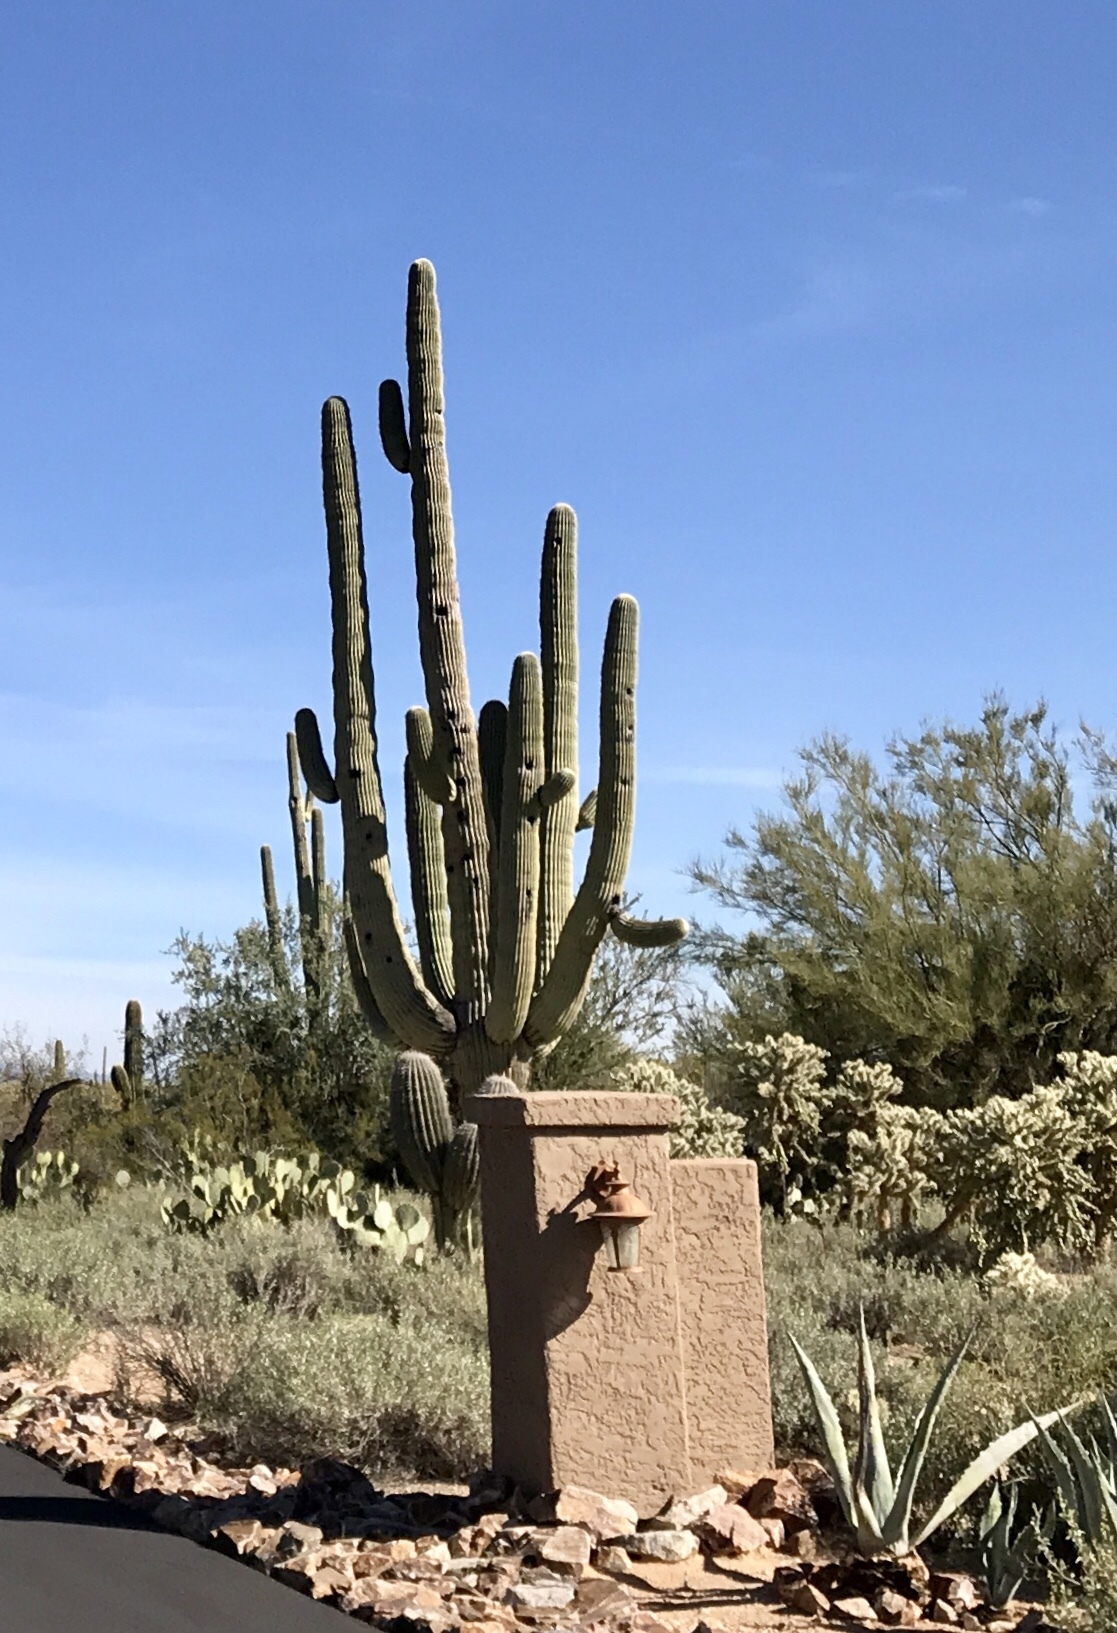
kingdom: Plantae
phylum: Tracheophyta
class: Magnoliopsida
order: Caryophyllales
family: Cactaceae
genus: Carnegiea
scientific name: Carnegiea gigantea
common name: Saguaro
